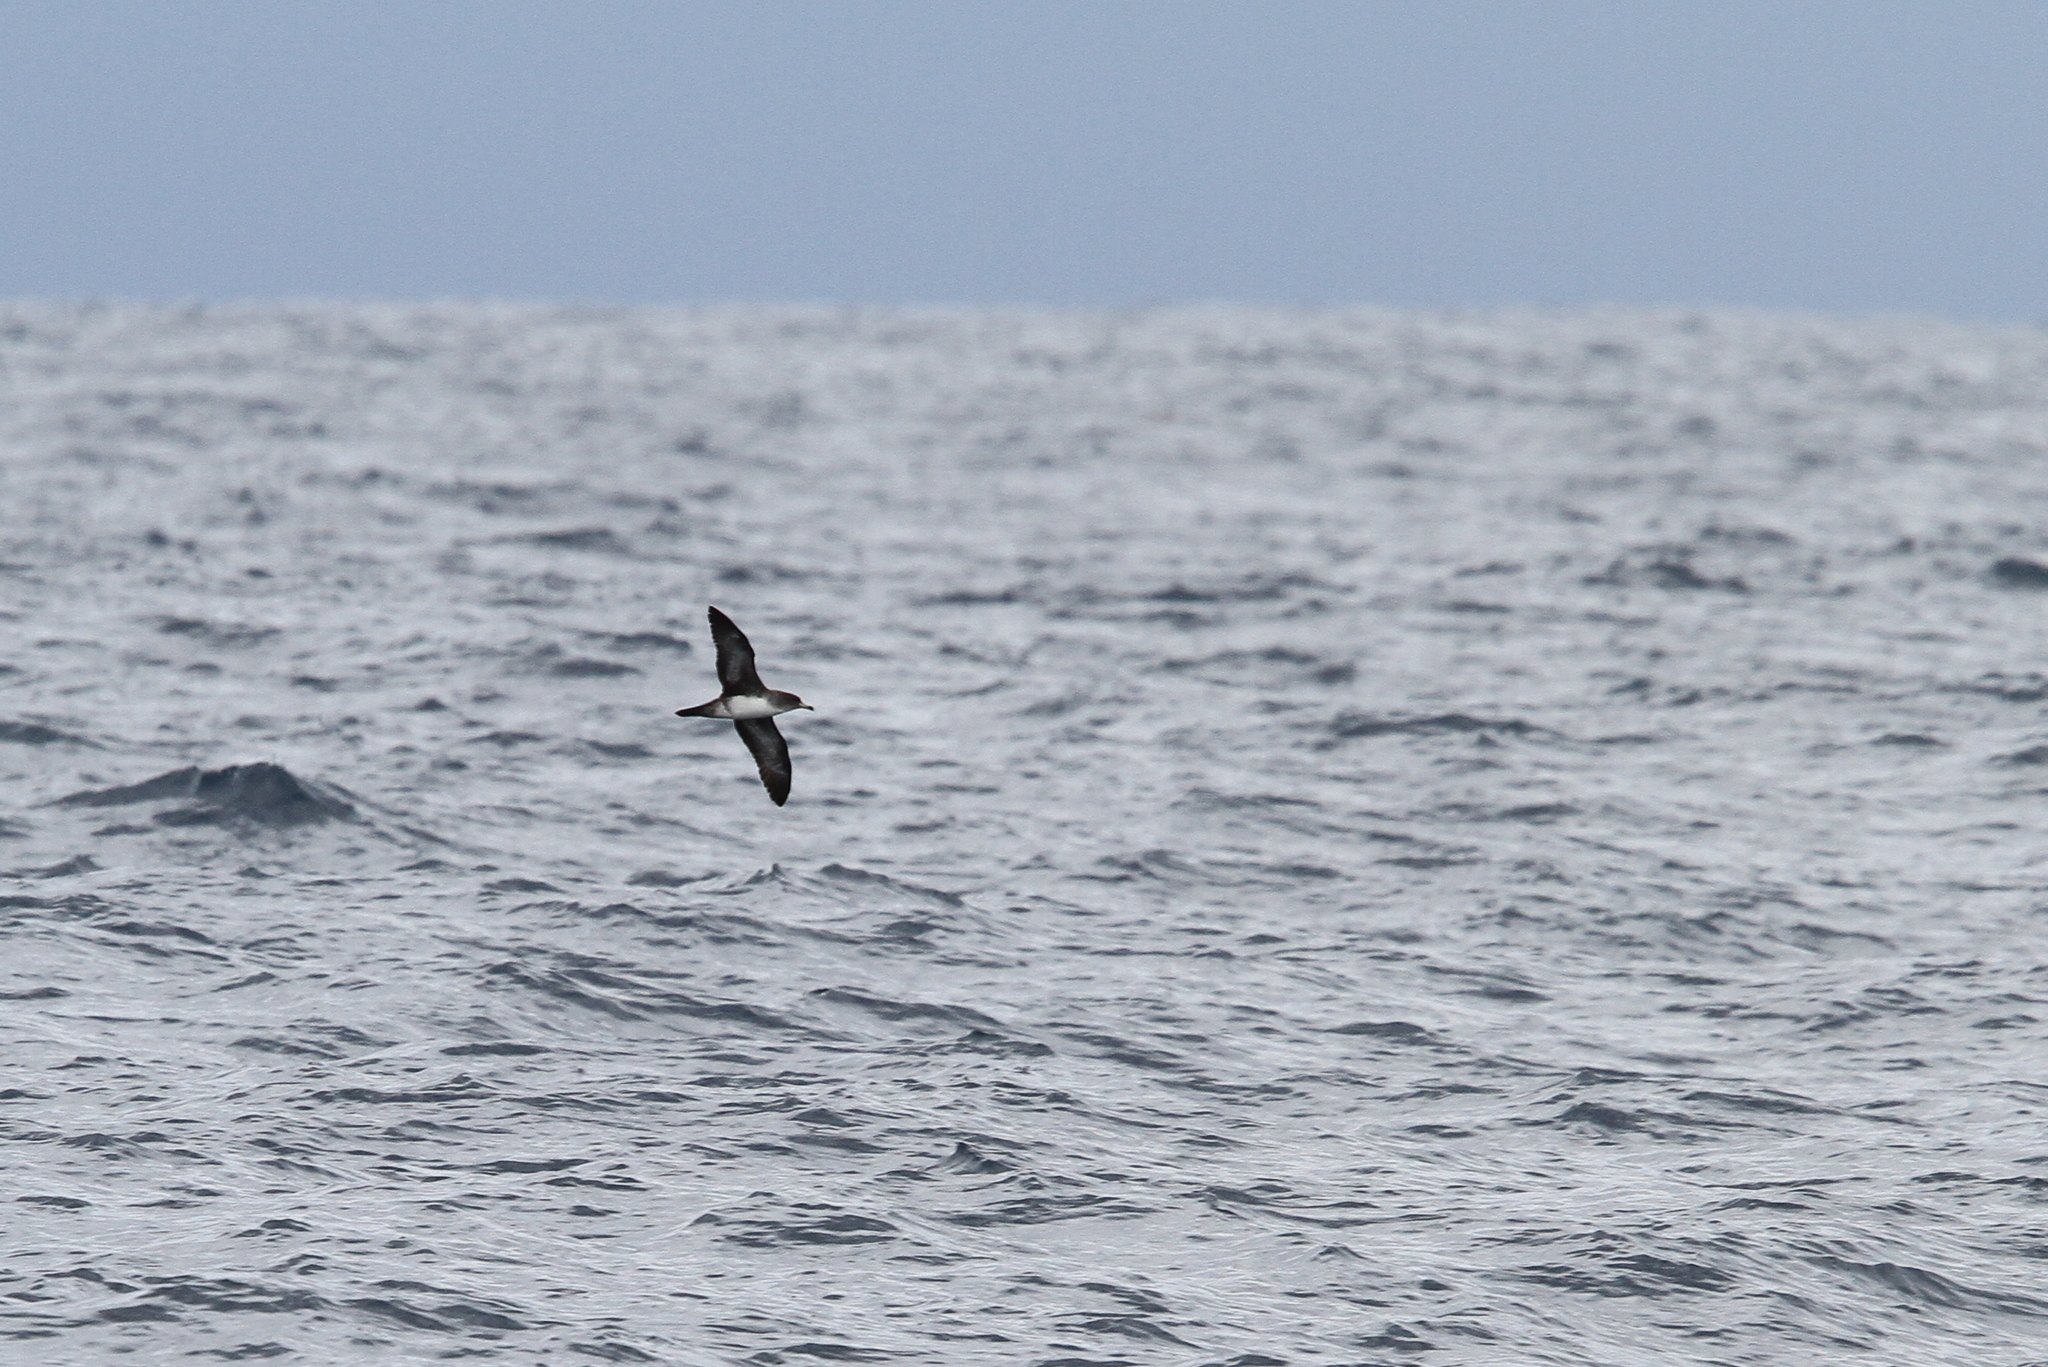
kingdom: Animalia
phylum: Chordata
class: Aves
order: Procellariiformes
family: Procellariidae
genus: Puffinus
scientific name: Puffinus creatopus
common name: Pink-footed shearwater
